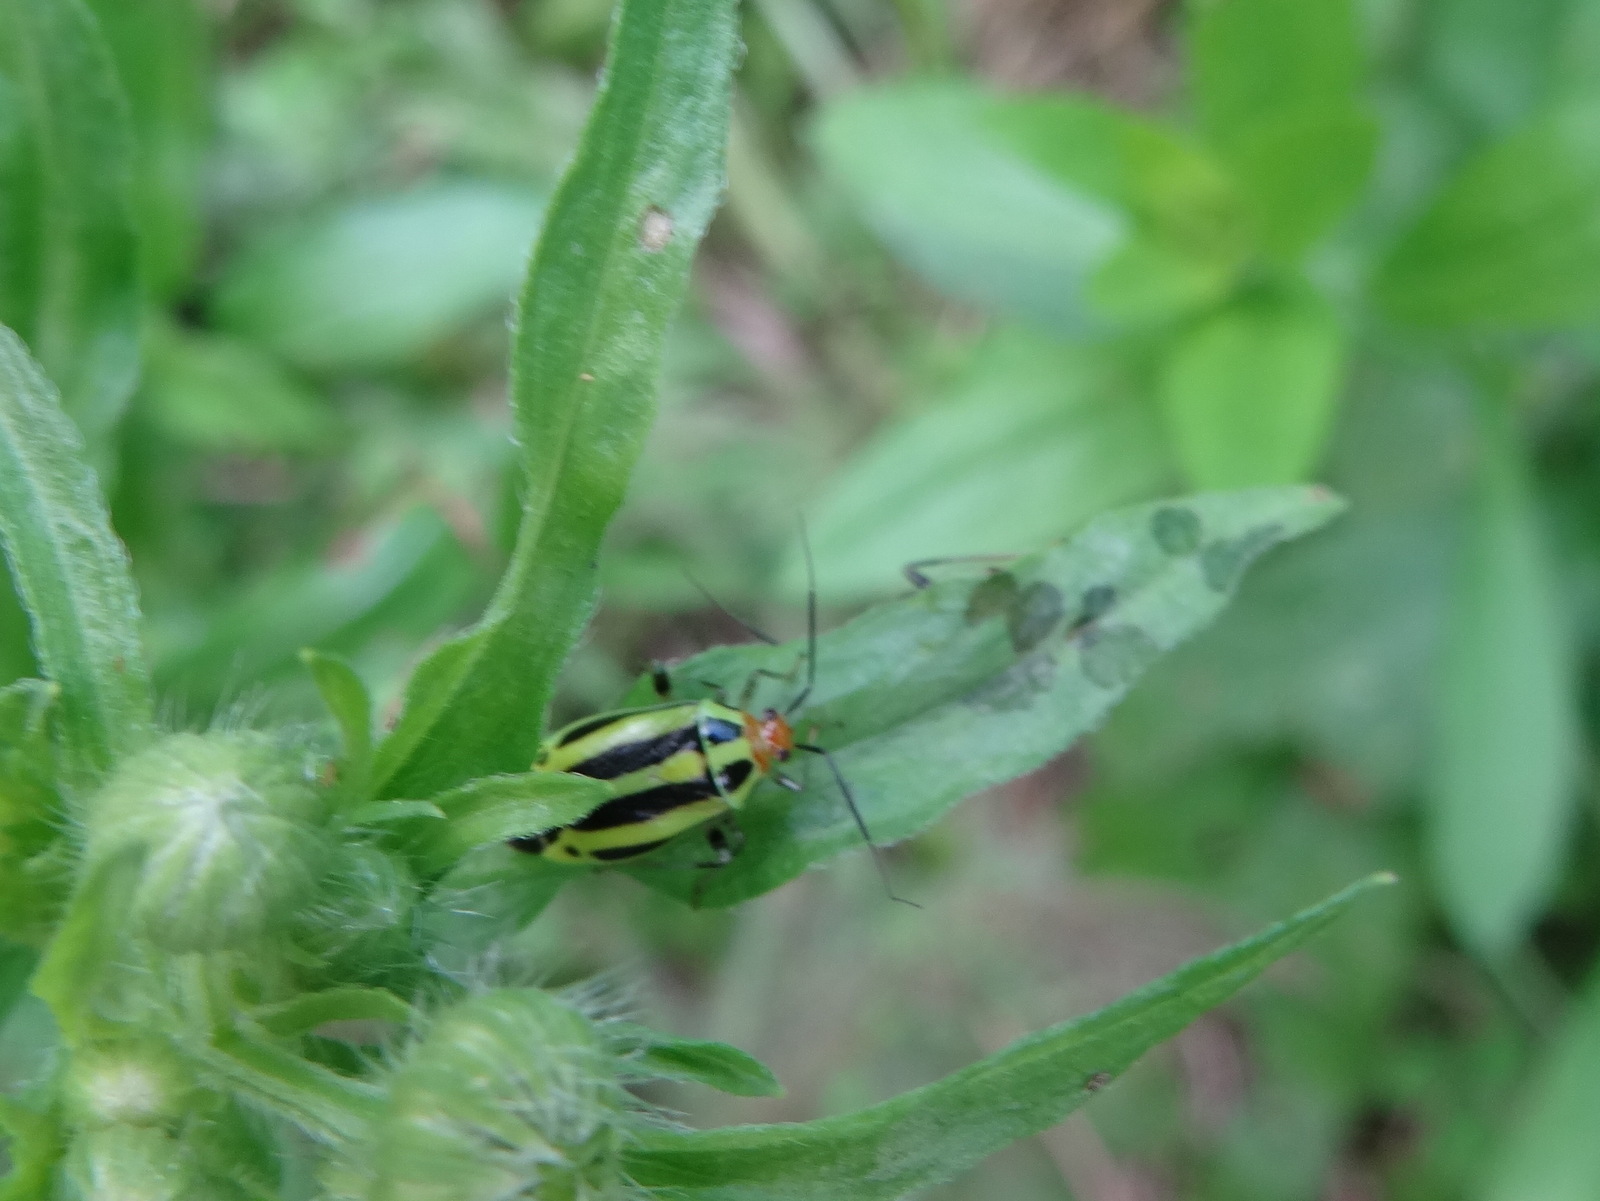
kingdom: Animalia
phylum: Arthropoda
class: Insecta
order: Hemiptera
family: Miridae
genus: Poecilocapsus
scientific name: Poecilocapsus lineatus
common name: Four-lined plant bug
